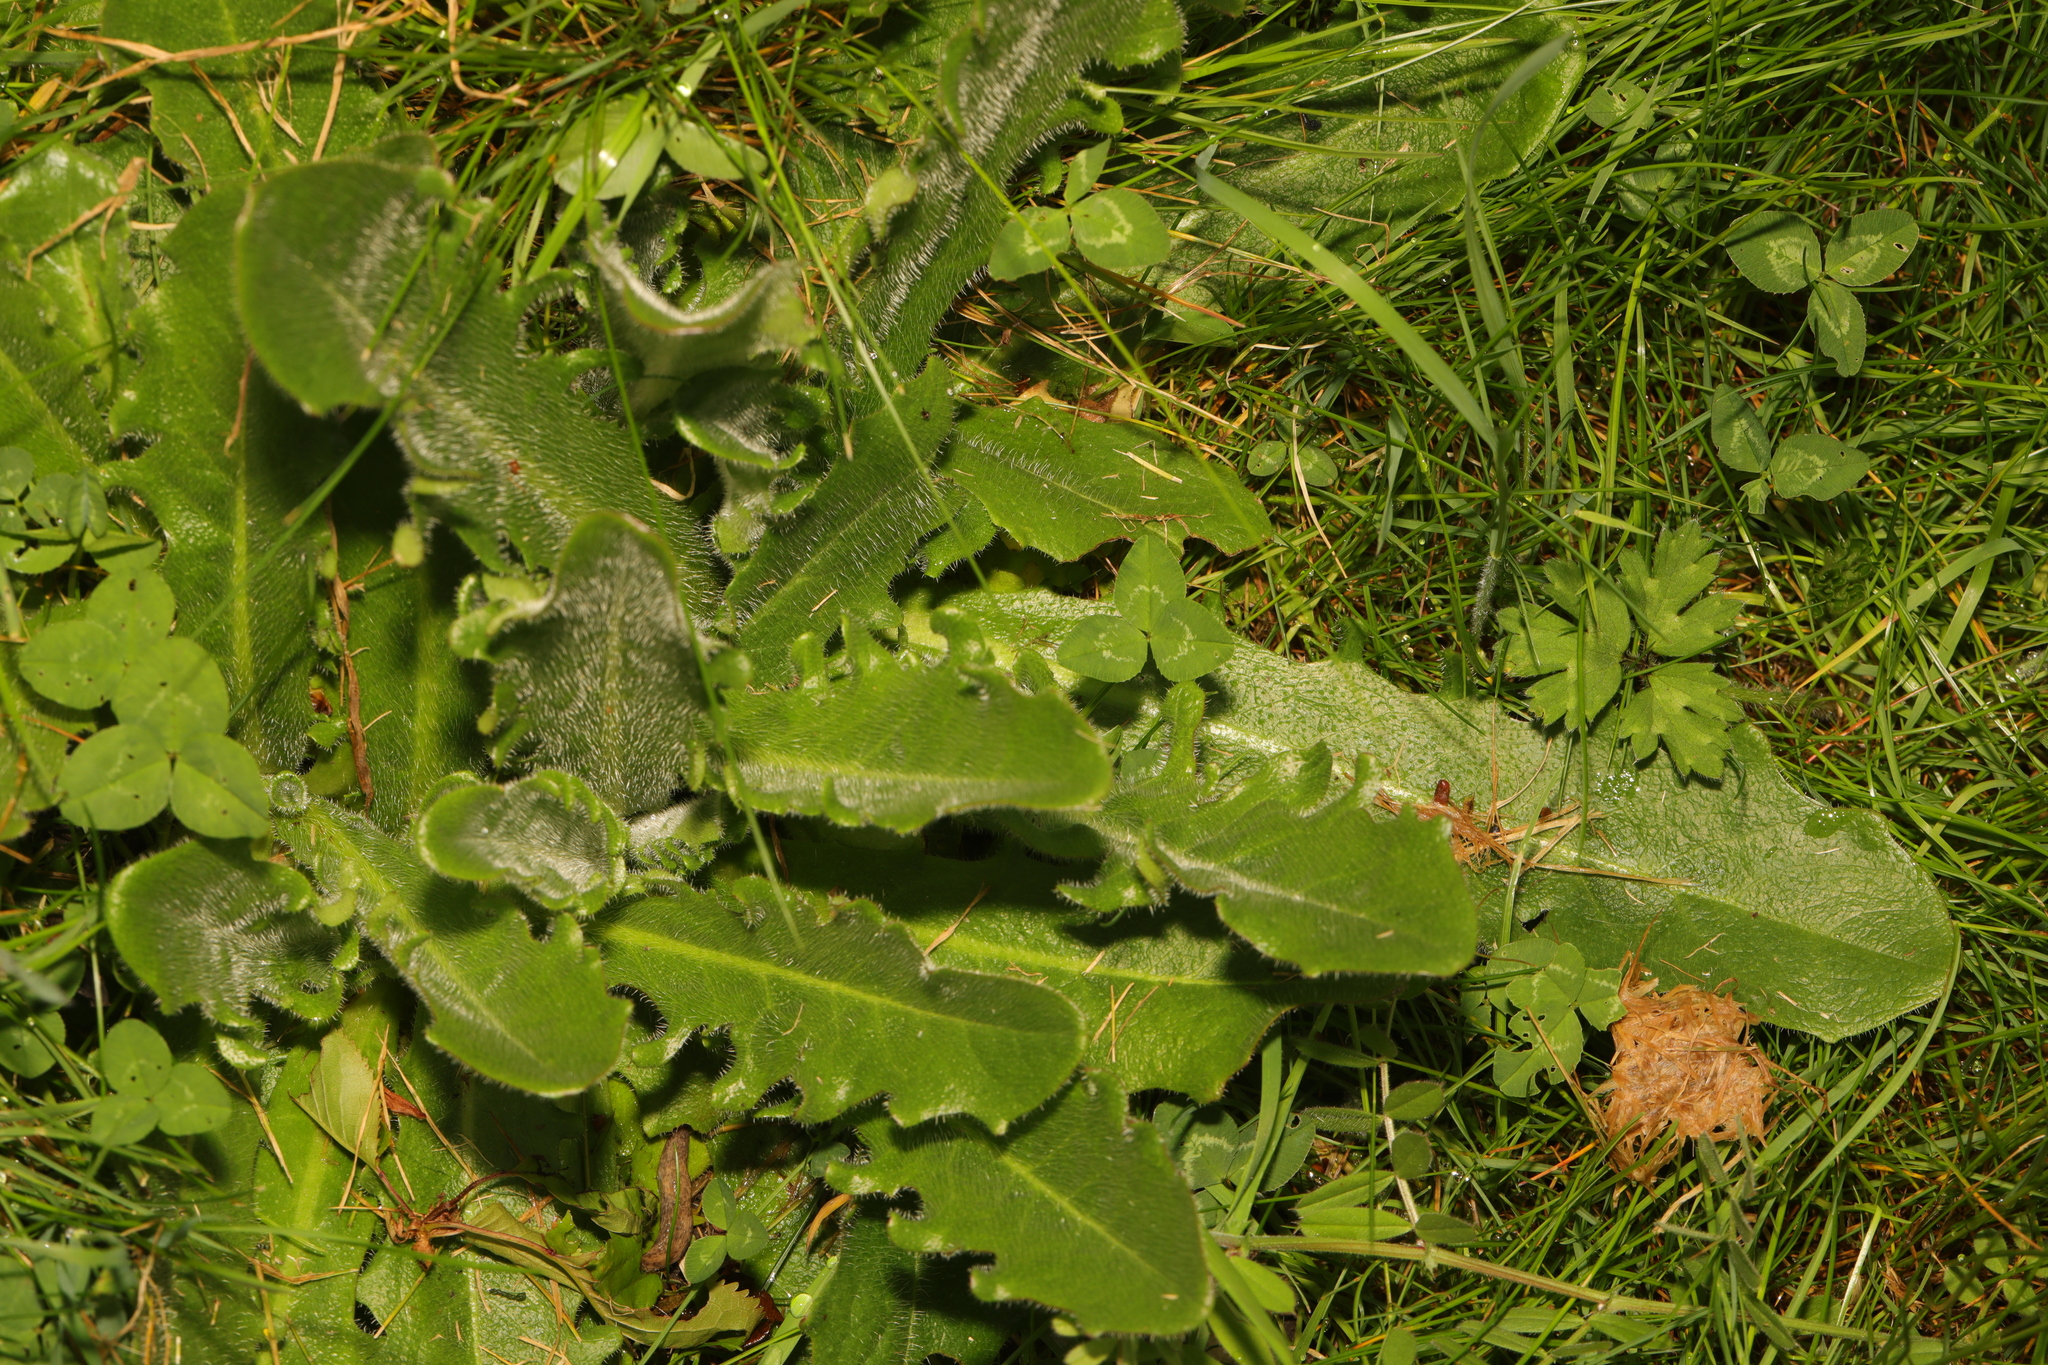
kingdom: Plantae
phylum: Tracheophyta
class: Magnoliopsida
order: Asterales
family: Asteraceae
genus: Hypochaeris
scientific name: Hypochaeris radicata
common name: Flatweed
